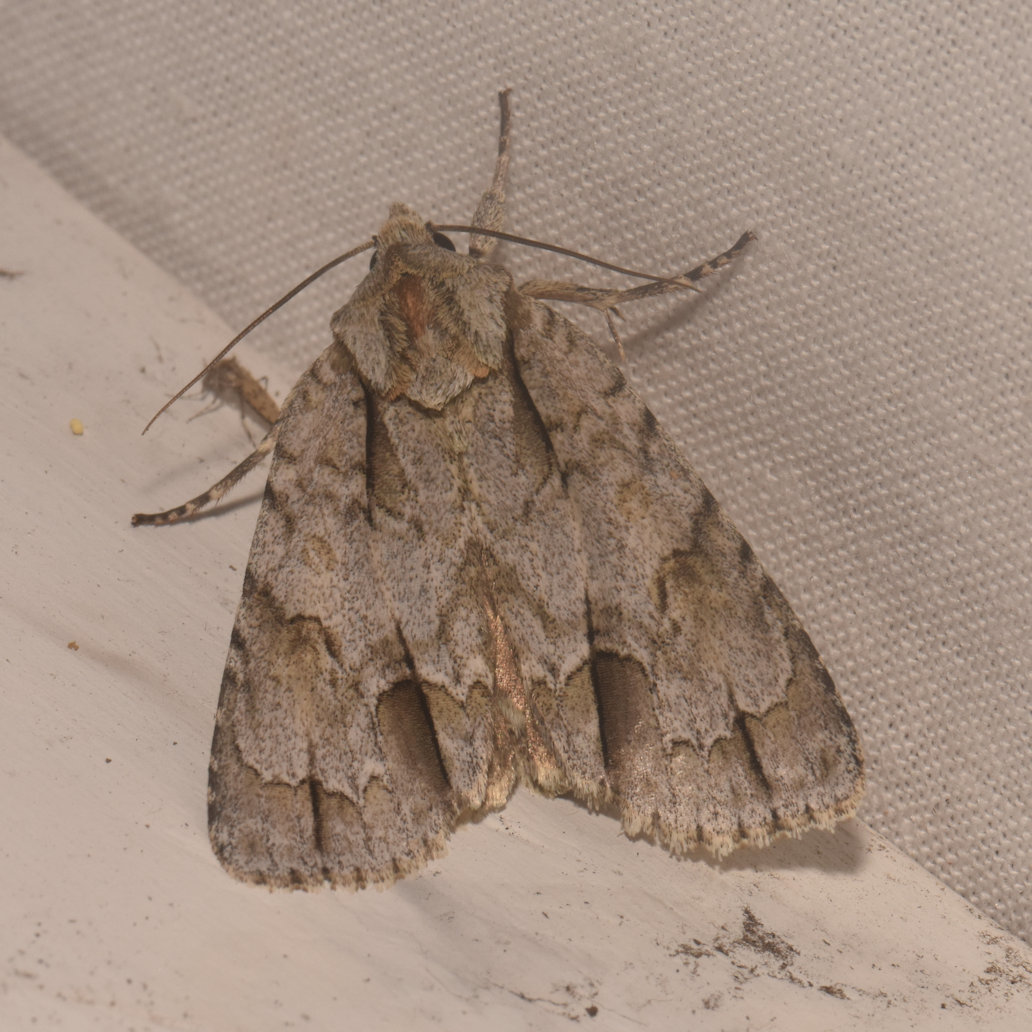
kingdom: Animalia
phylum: Arthropoda
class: Insecta
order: Lepidoptera
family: Noctuidae
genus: Acronicta
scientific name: Acronicta morula
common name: Ochre dagger
